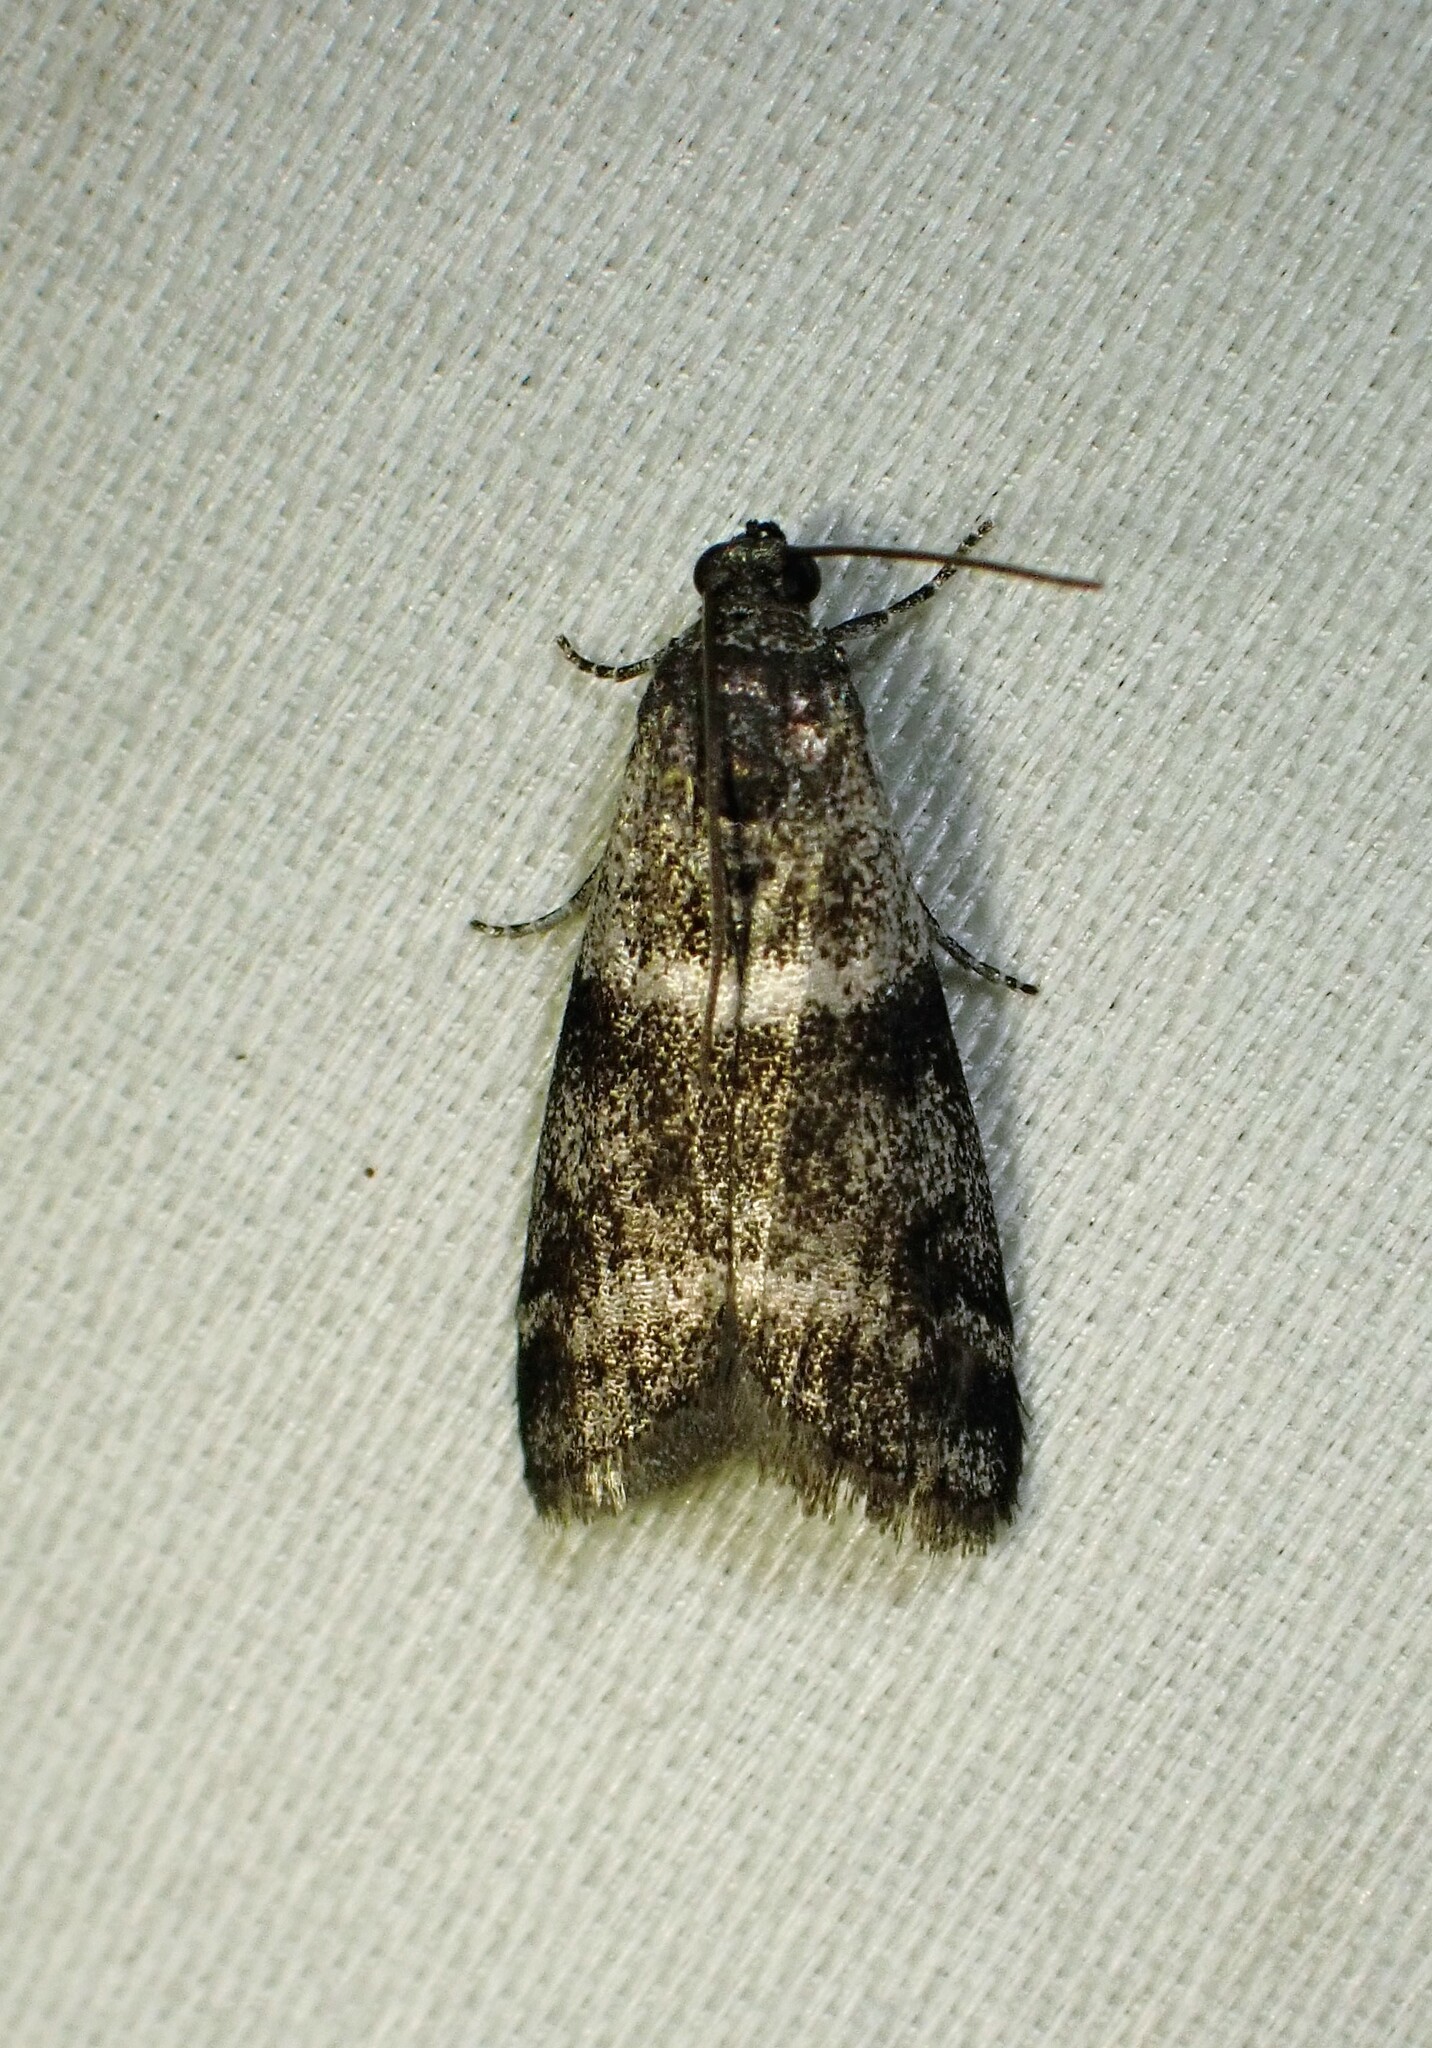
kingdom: Animalia
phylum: Arthropoda
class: Insecta
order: Lepidoptera
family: Pyralidae
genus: Apomyelois
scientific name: Apomyelois bistriatella
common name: Heath knot-horn
